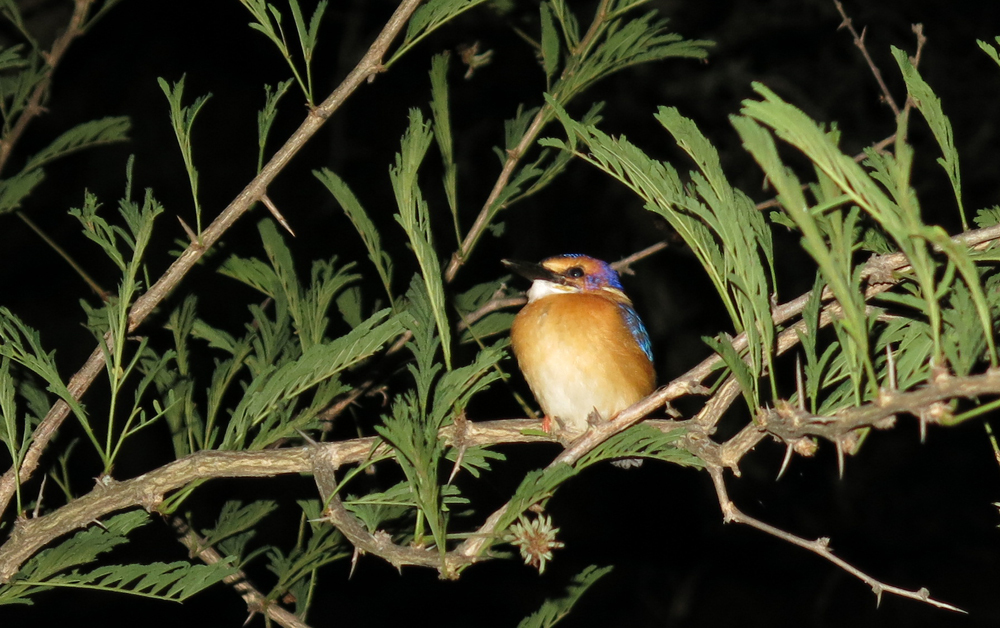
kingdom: Animalia
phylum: Chordata
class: Aves
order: Coraciiformes
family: Alcedinidae
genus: Ispidina
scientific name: Ispidina picta
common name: African pygmy-kingfisher
